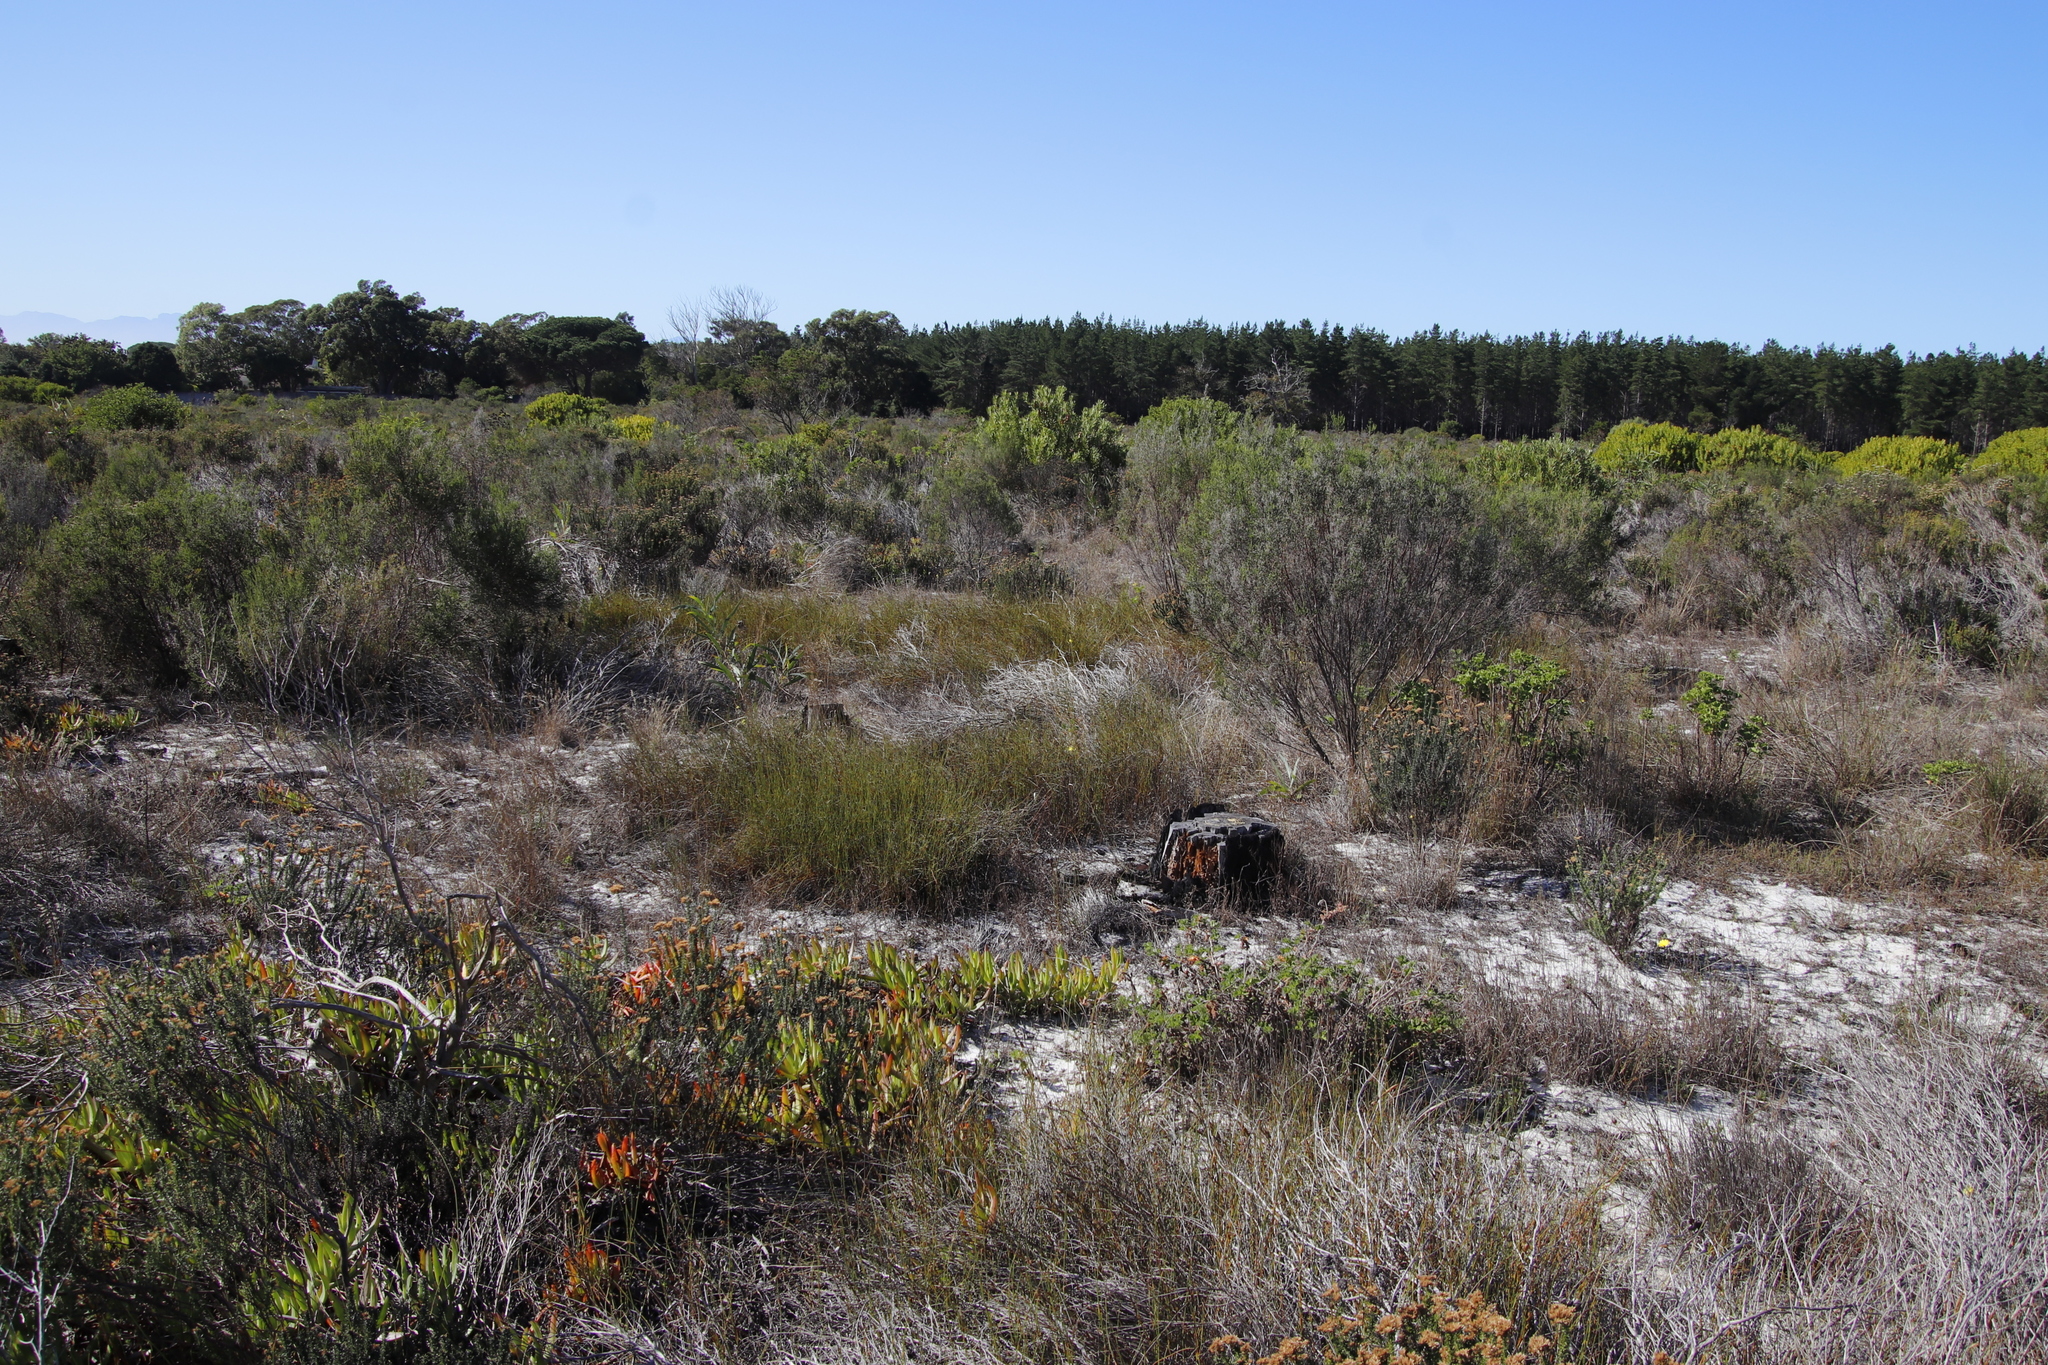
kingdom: Plantae
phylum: Tracheophyta
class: Liliopsida
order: Asparagales
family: Asphodelaceae
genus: Bulbine
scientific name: Bulbine favosa
